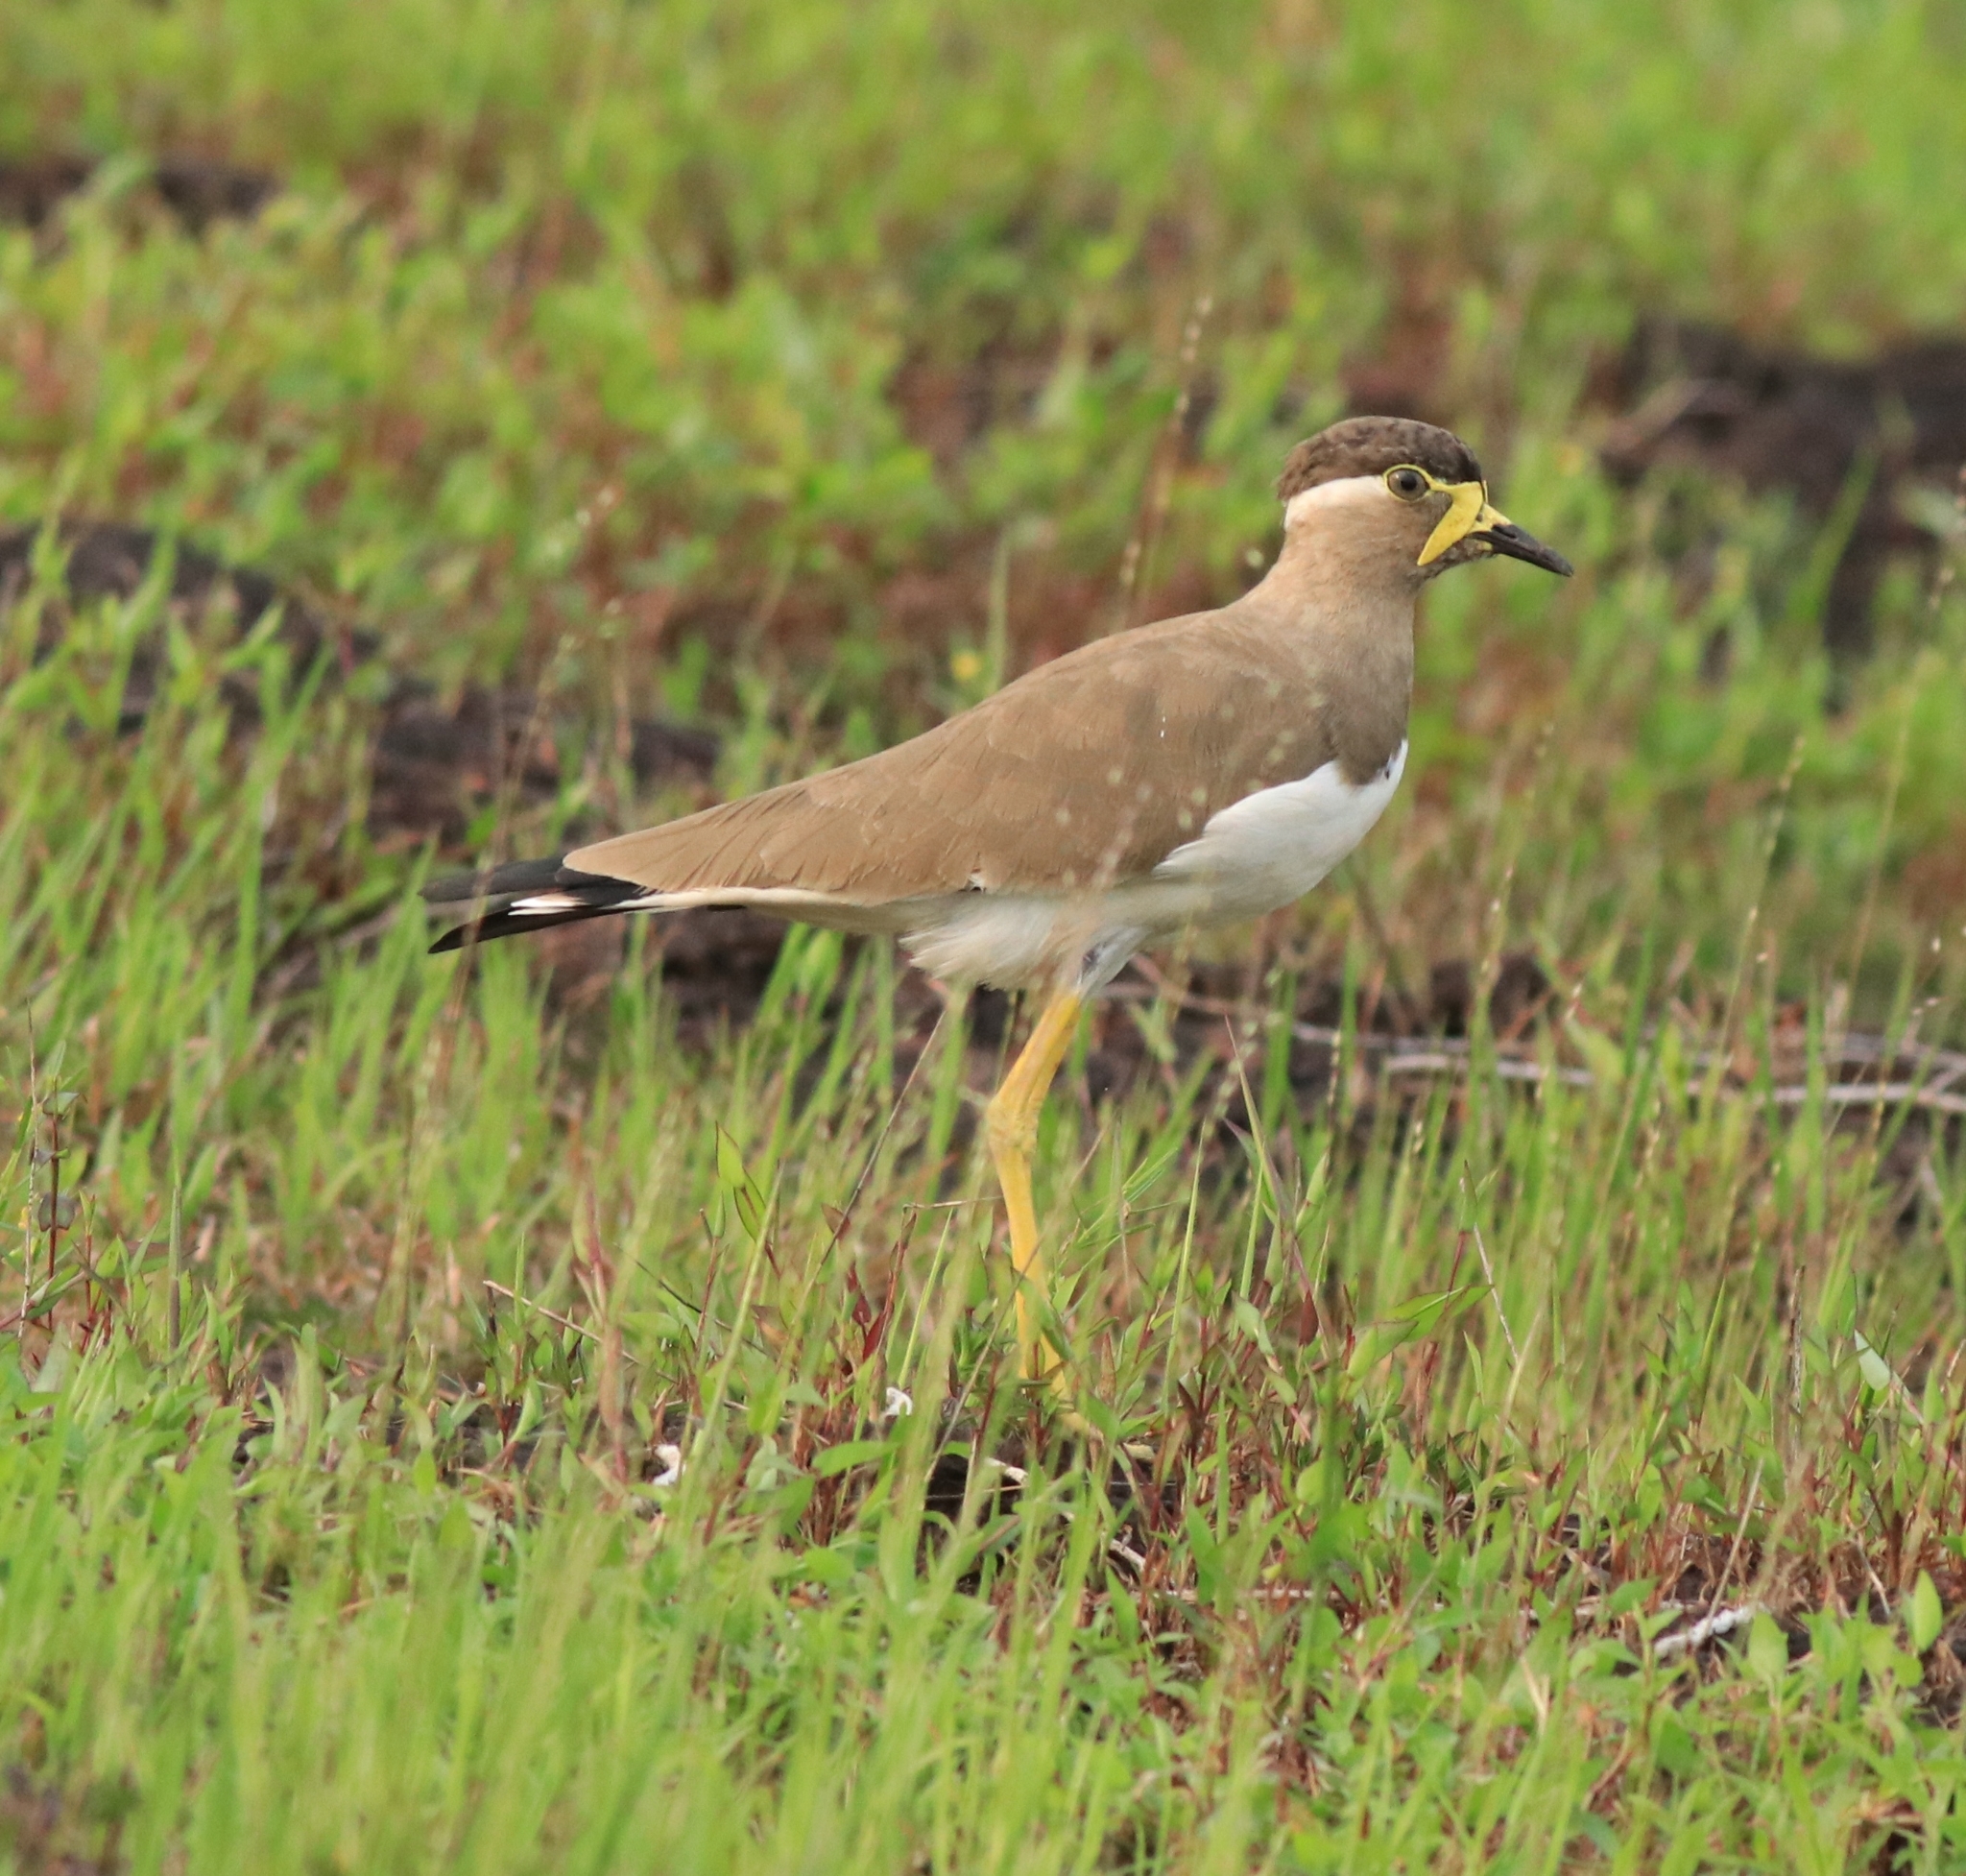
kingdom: Animalia
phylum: Chordata
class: Aves
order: Charadriiformes
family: Charadriidae
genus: Vanellus
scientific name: Vanellus malabaricus
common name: Yellow-wattled lapwing
